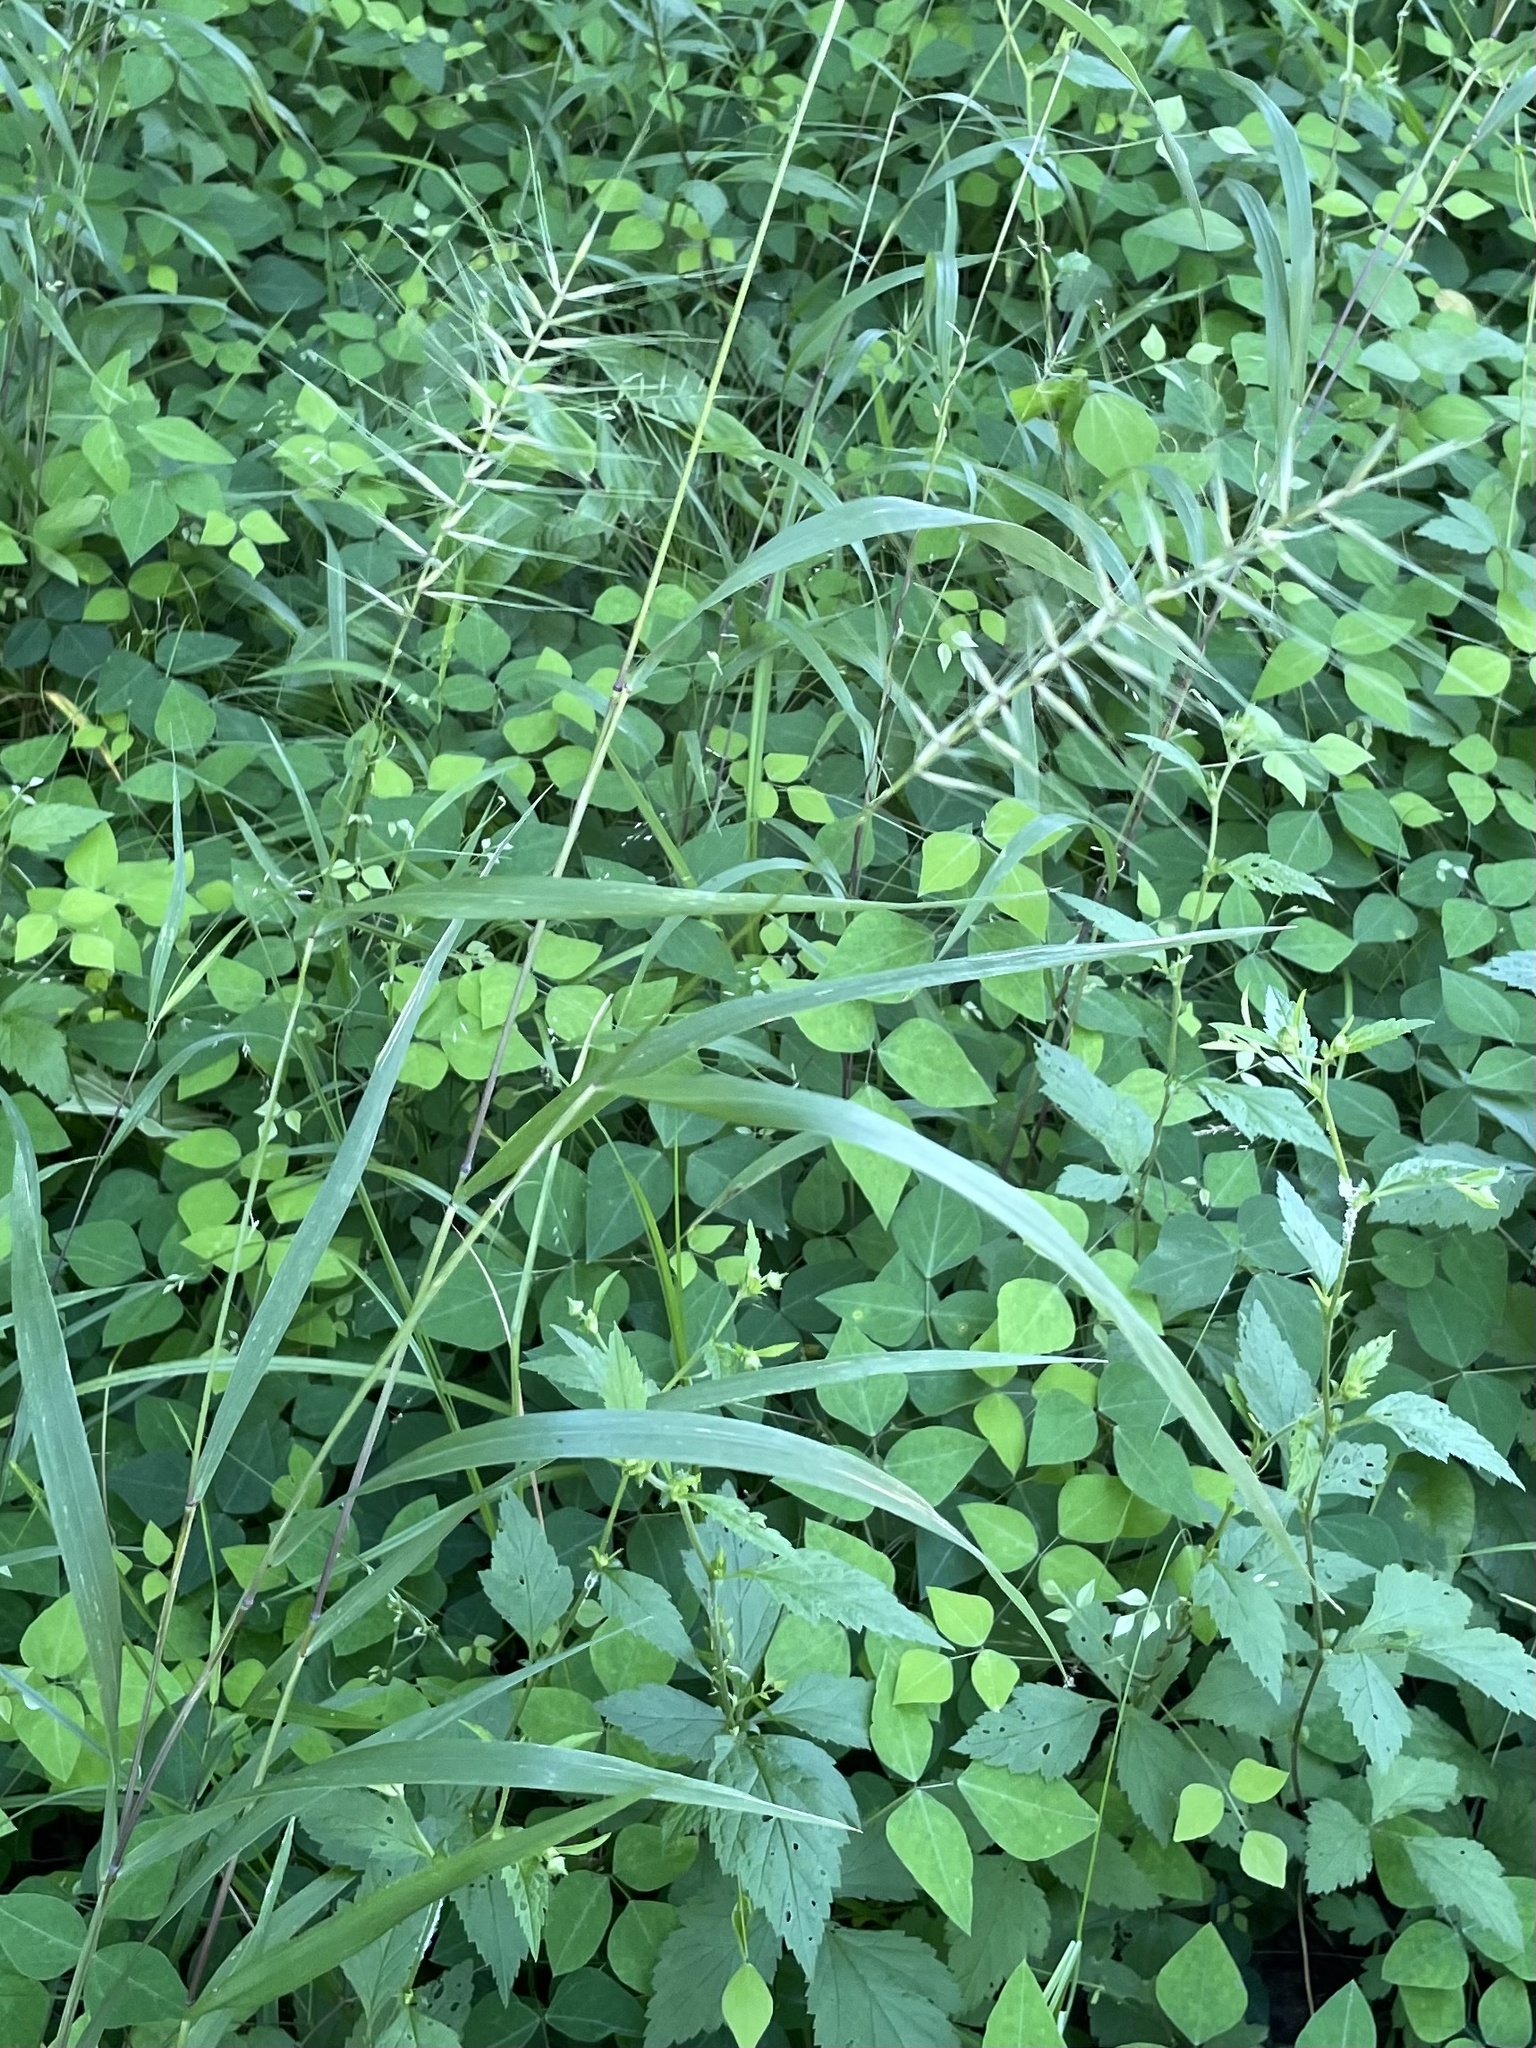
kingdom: Plantae
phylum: Tracheophyta
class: Liliopsida
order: Poales
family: Poaceae
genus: Elymus
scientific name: Elymus hystrix
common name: Bottlebrush grass
